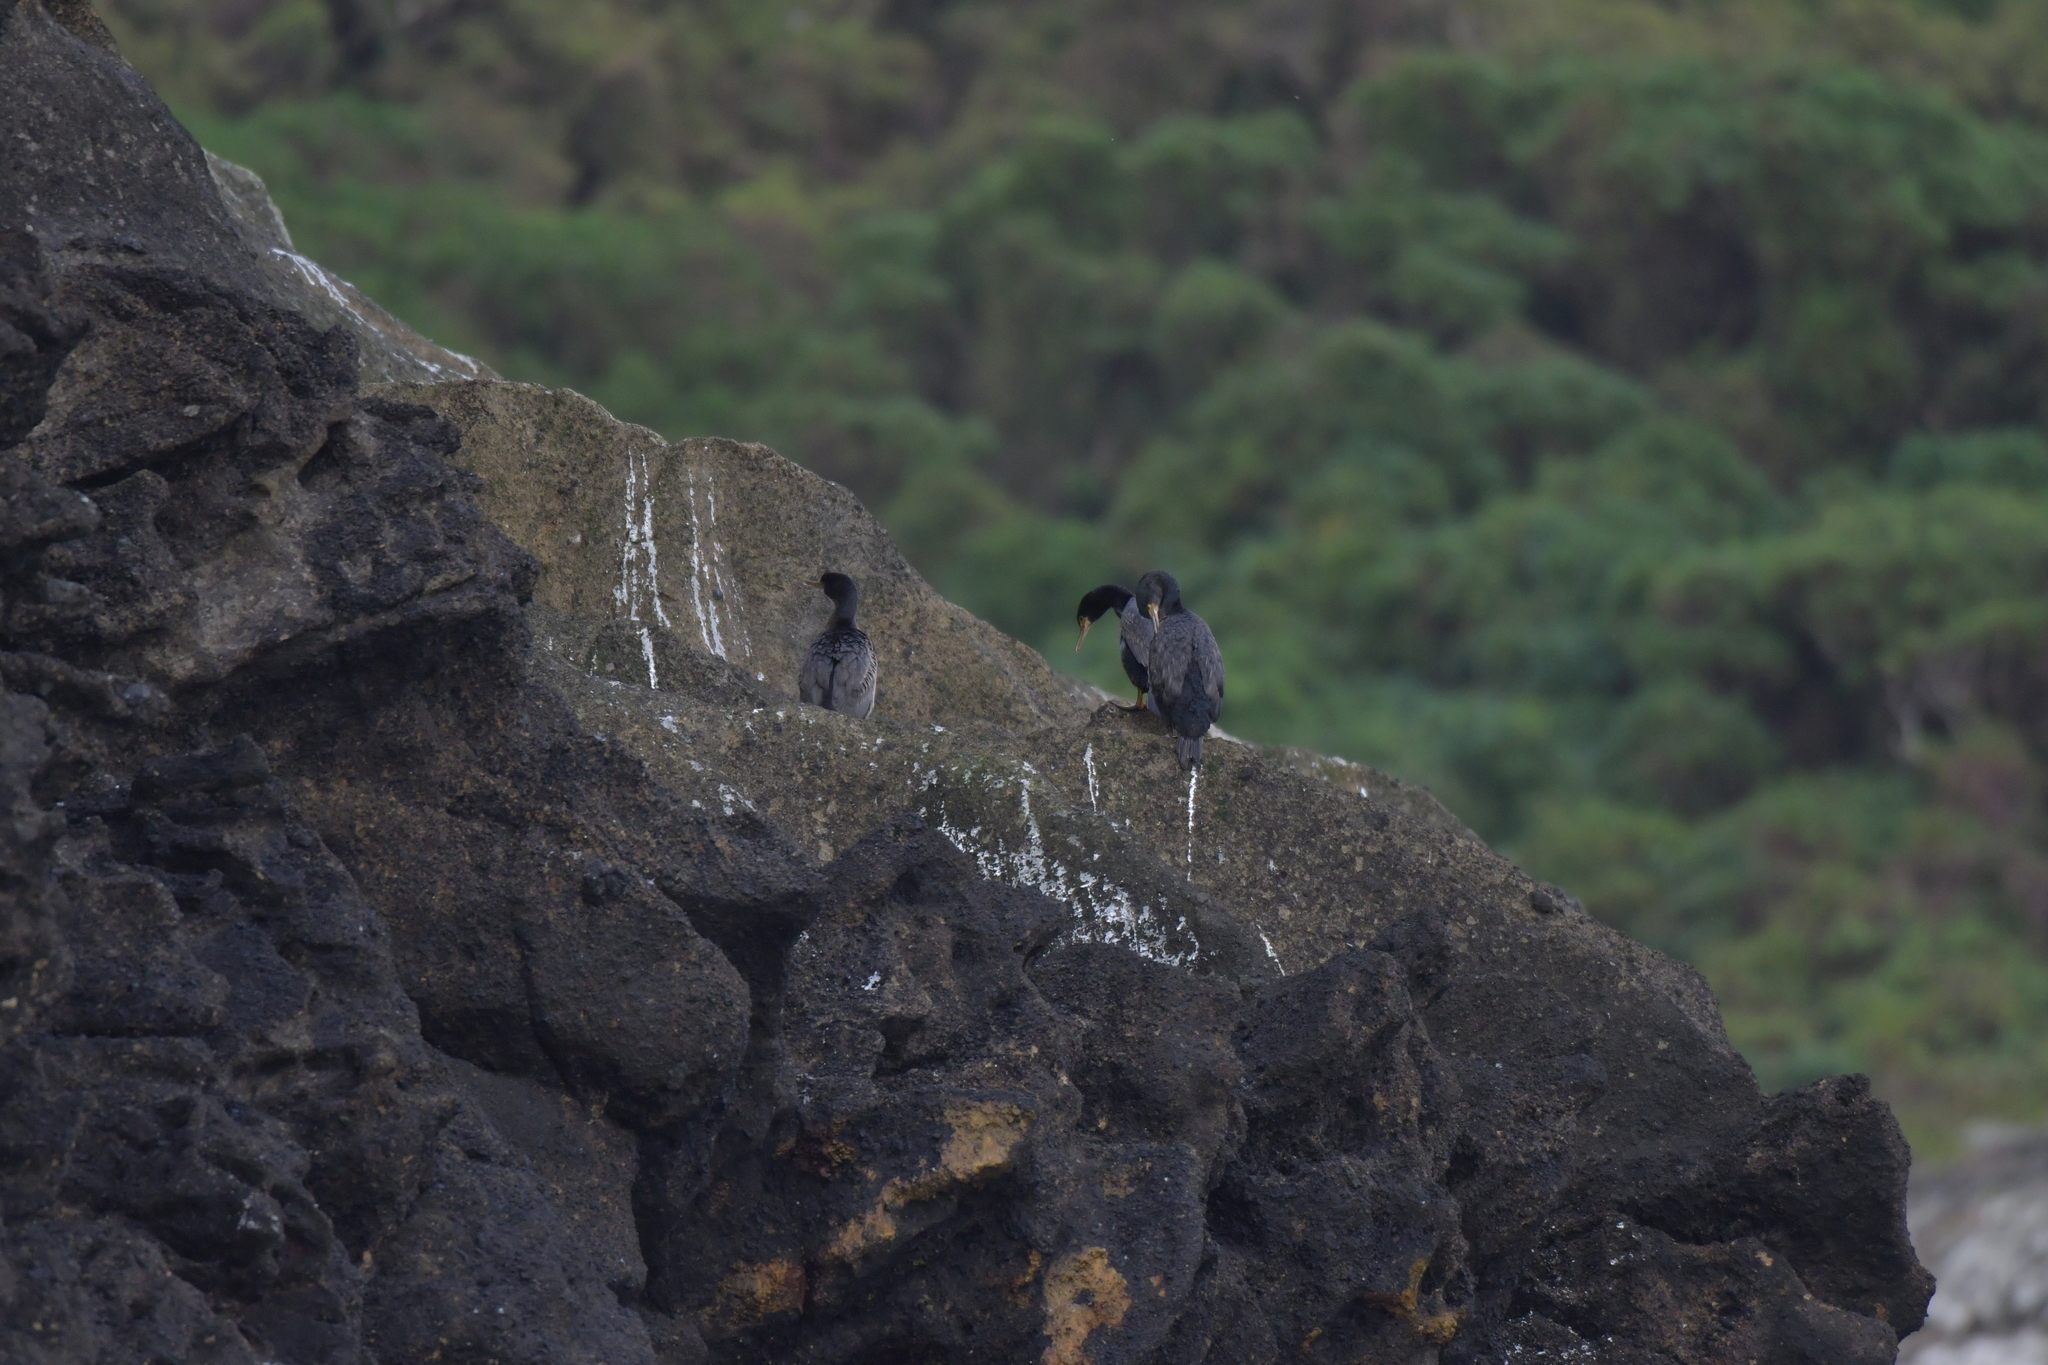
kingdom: Animalia
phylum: Chordata
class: Aves
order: Suliformes
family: Phalacrocoracidae
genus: Phalacrocorax
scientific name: Phalacrocorax featherstoni
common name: Pitt shag
